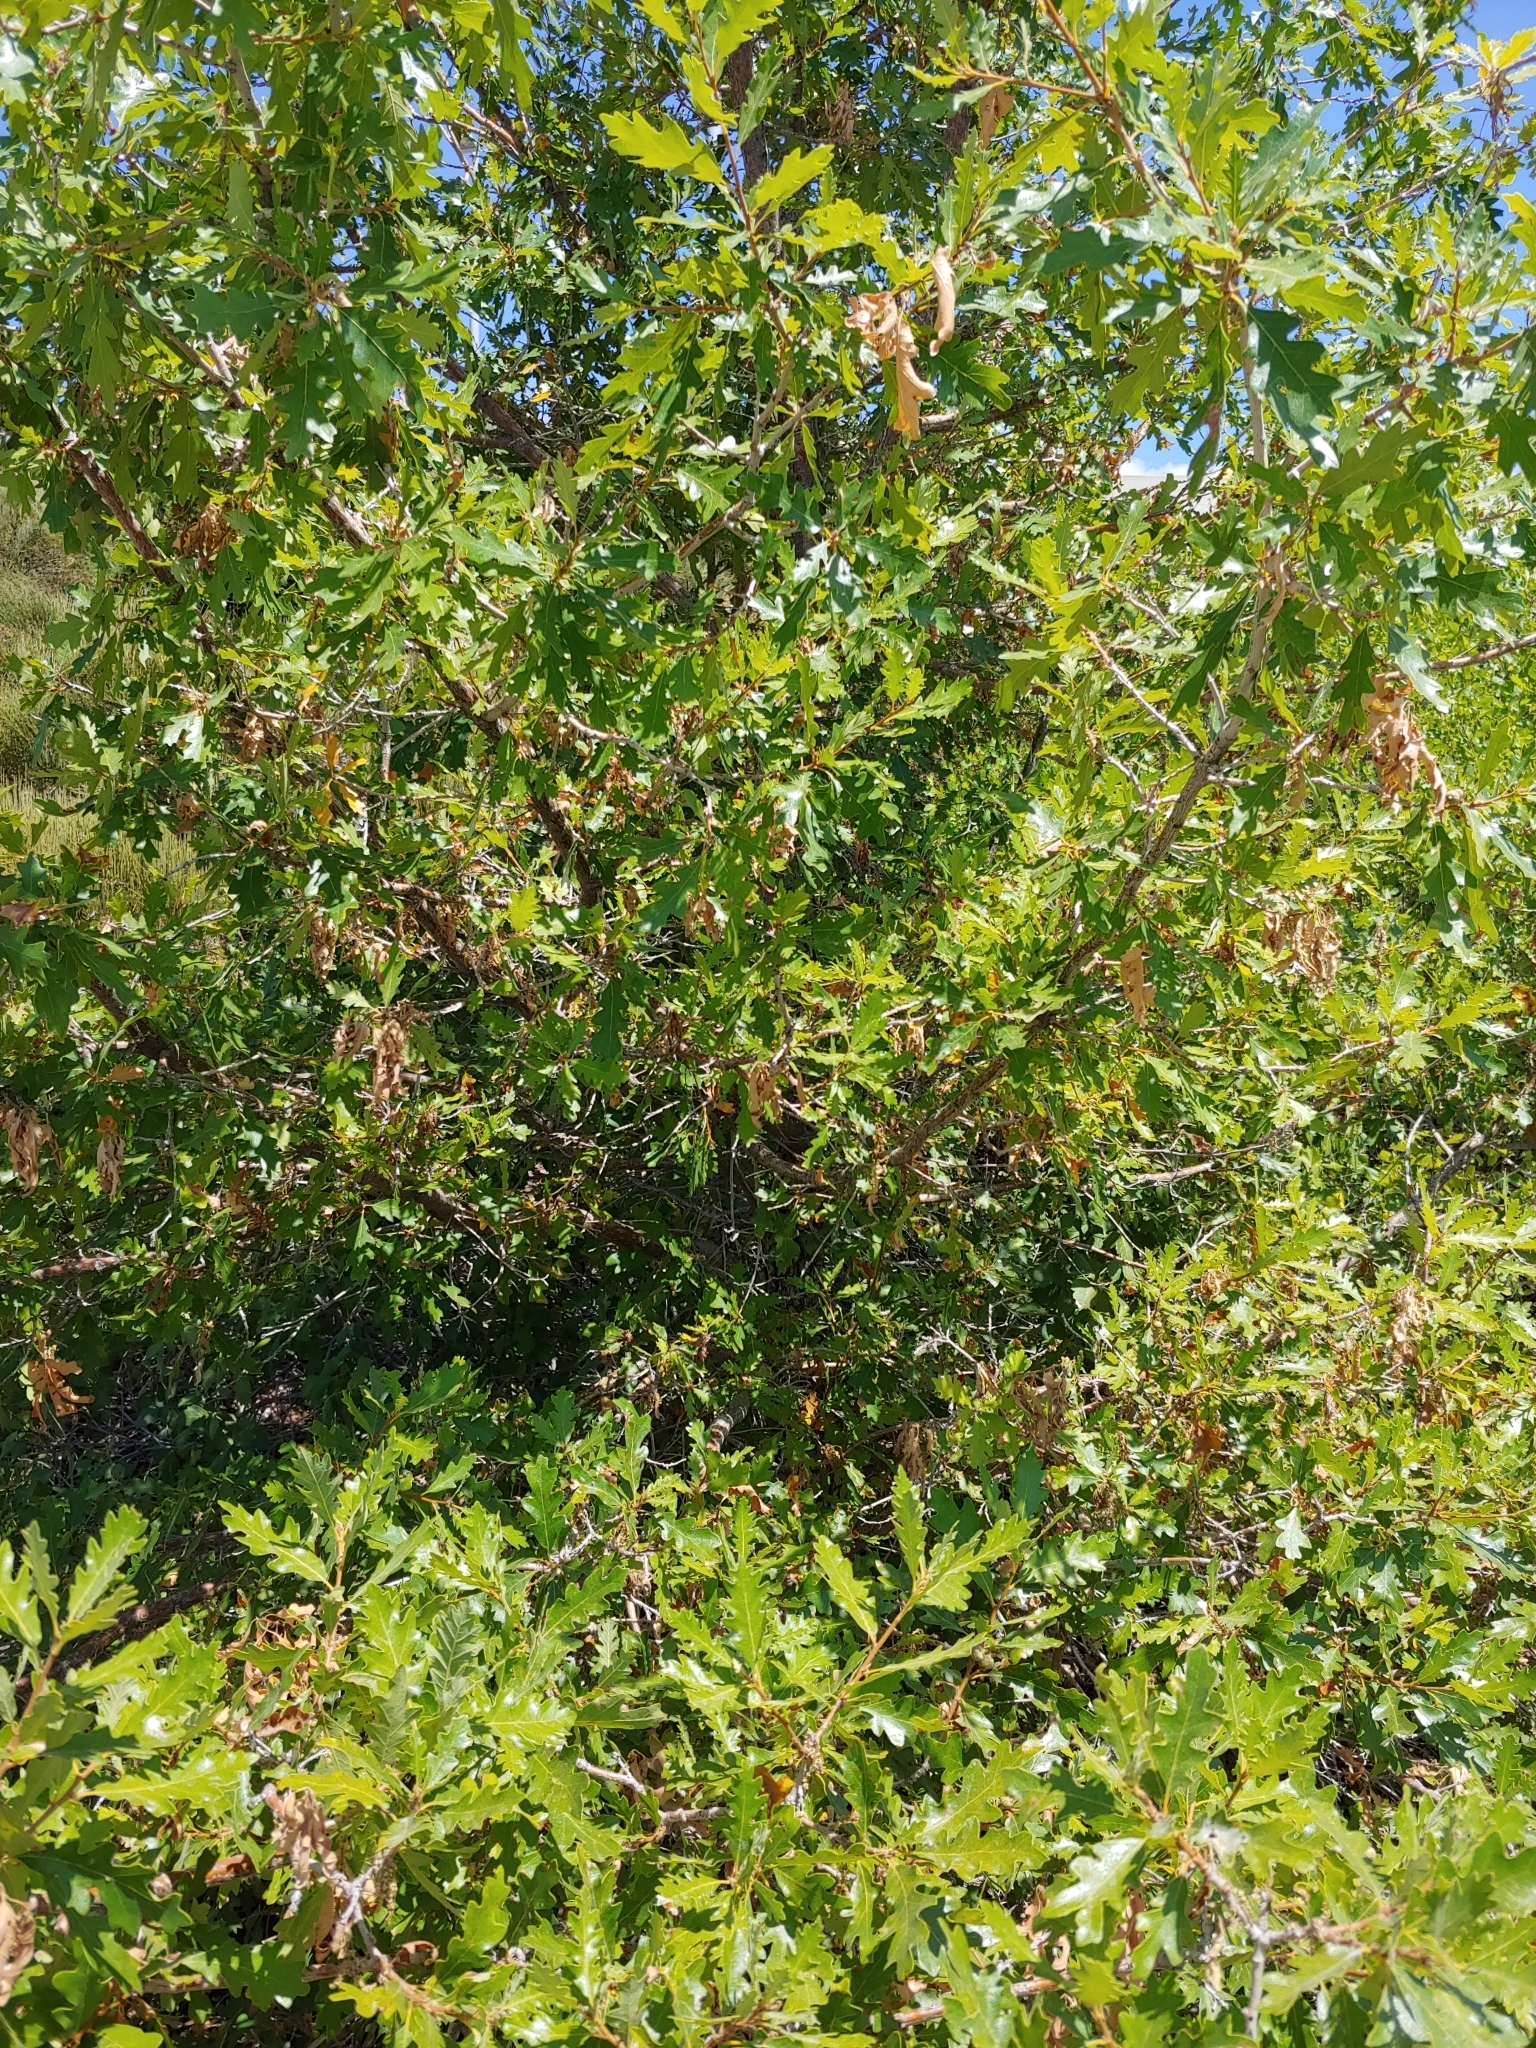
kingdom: Plantae
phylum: Tracheophyta
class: Magnoliopsida
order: Fagales
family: Fagaceae
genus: Quercus
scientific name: Quercus gambelii
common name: Gambel oak
